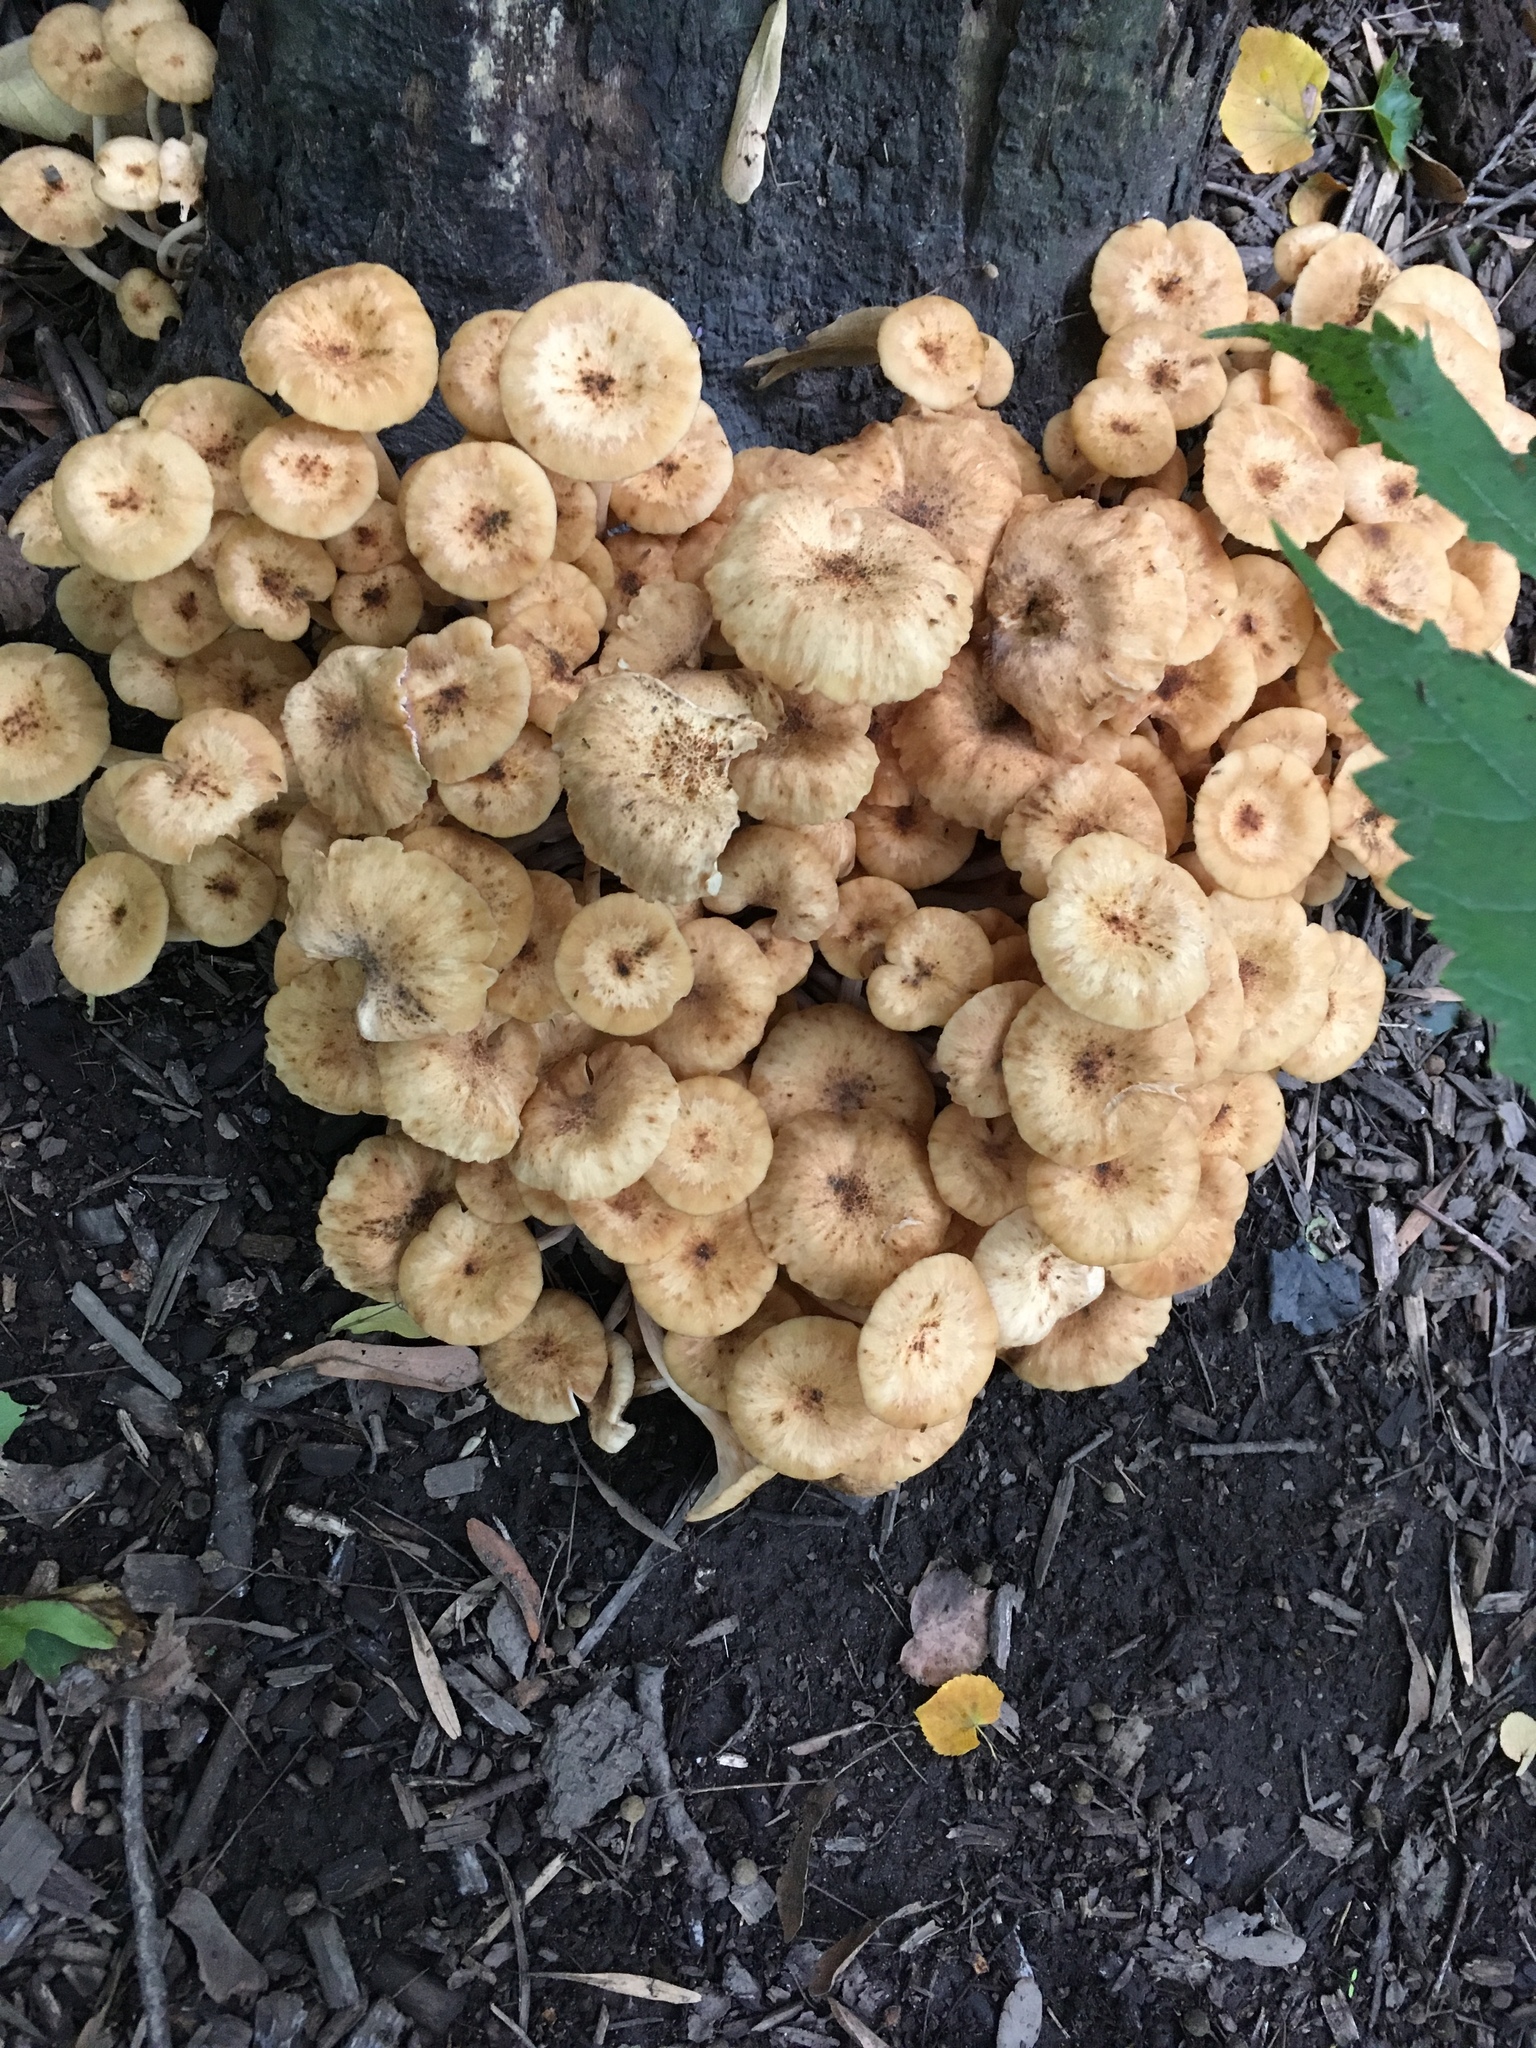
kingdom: Fungi
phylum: Basidiomycota
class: Agaricomycetes
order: Agaricales
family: Physalacriaceae
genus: Desarmillaria
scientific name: Desarmillaria caespitosa
